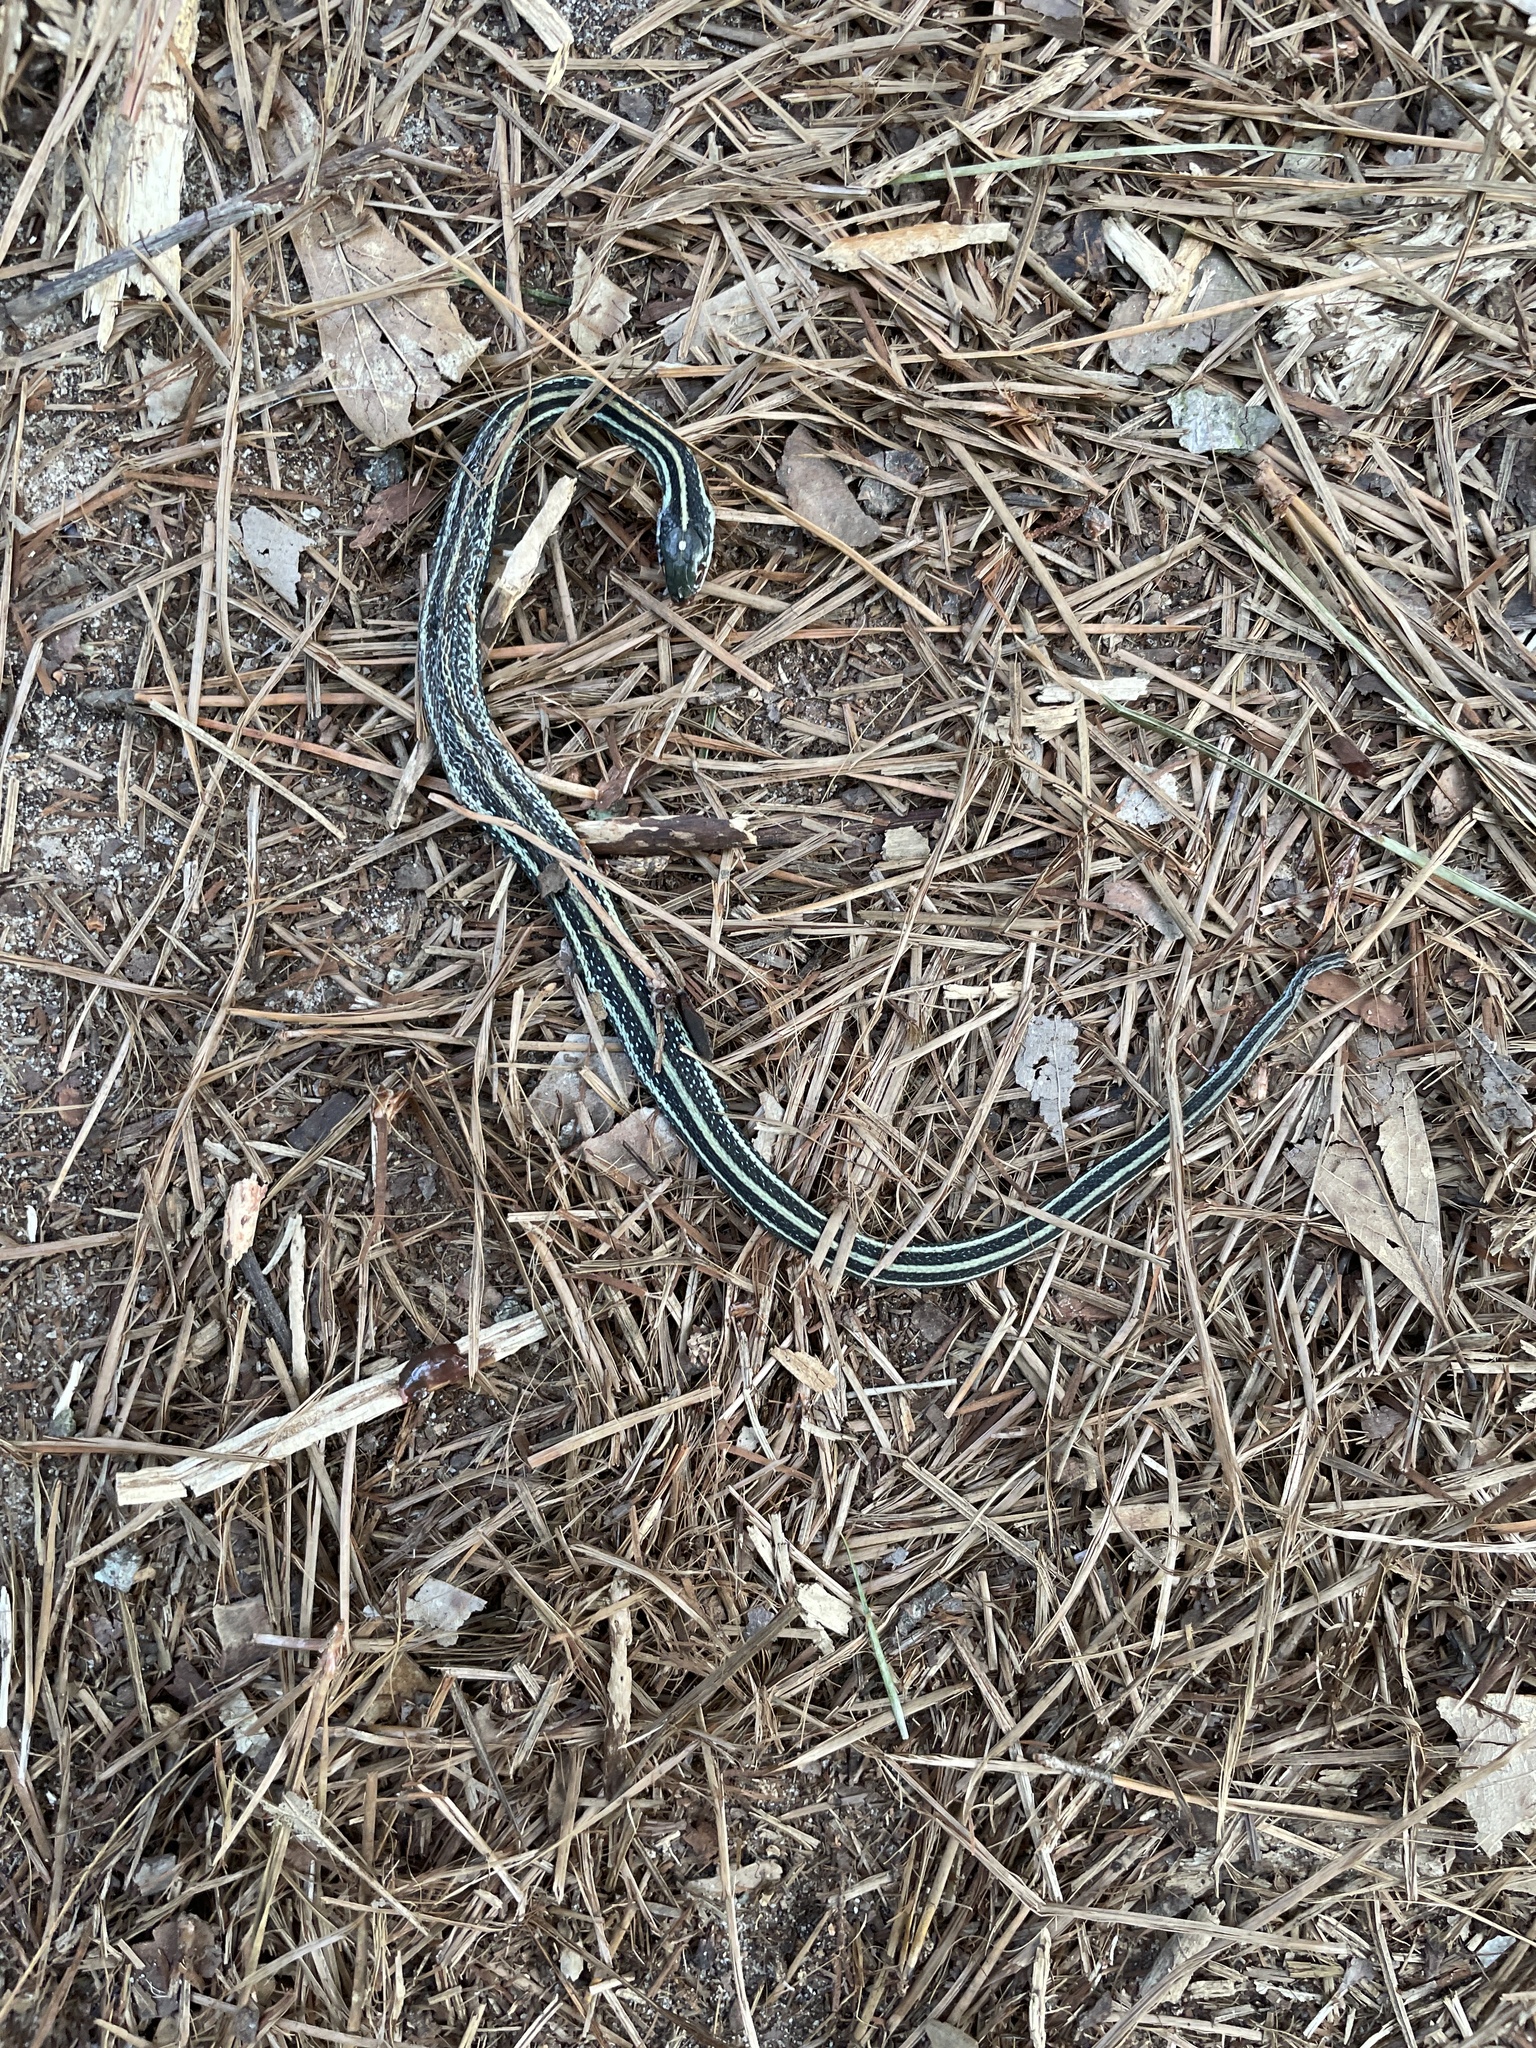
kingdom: Animalia
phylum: Chordata
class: Squamata
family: Colubridae
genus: Thamnophis
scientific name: Thamnophis proximus
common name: Western ribbon snake
